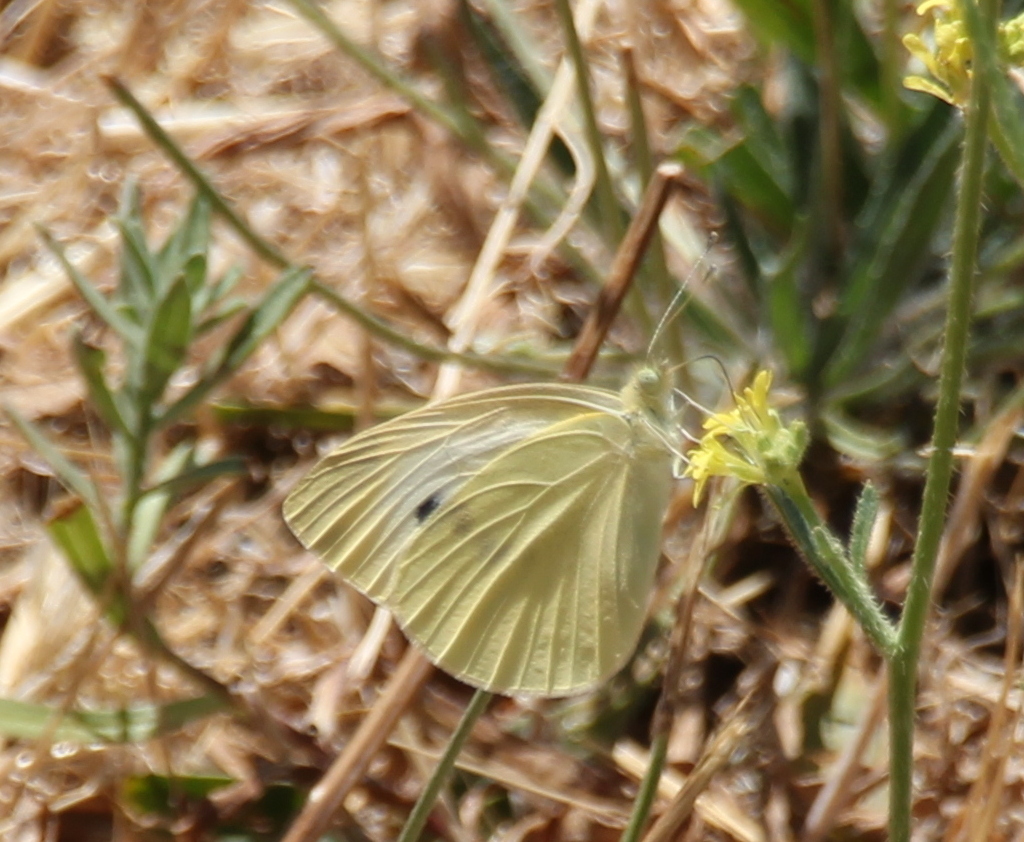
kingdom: Animalia
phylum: Arthropoda
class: Insecta
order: Lepidoptera
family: Pieridae
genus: Pieris
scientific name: Pieris rapae
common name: Small white
